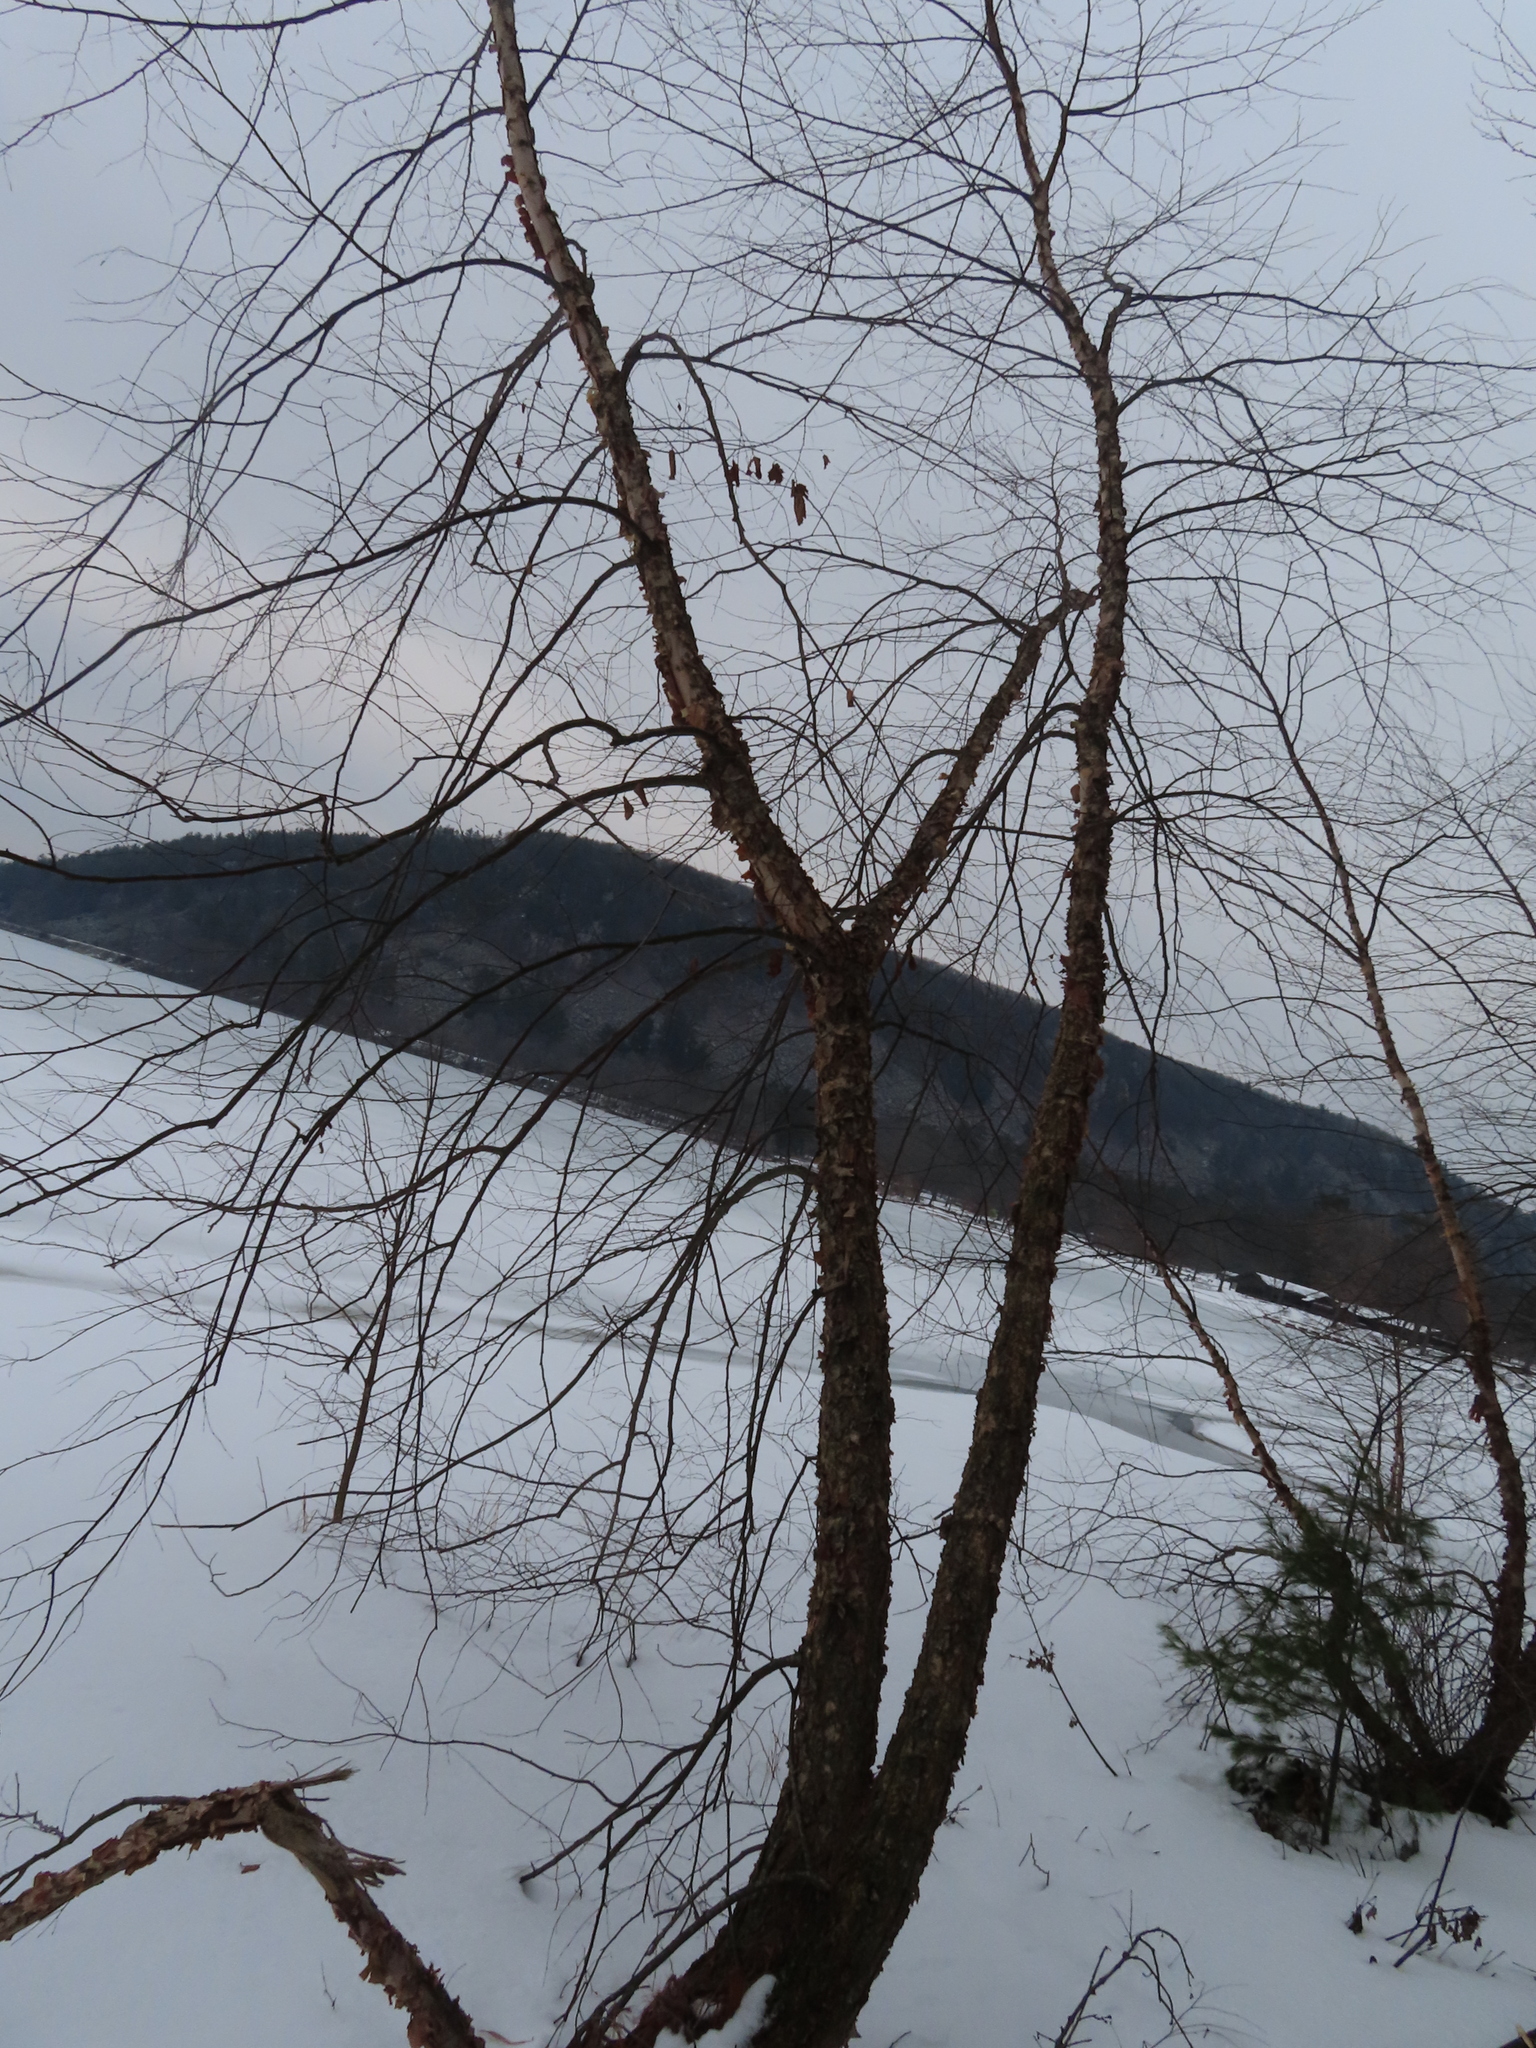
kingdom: Plantae
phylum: Tracheophyta
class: Magnoliopsida
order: Fagales
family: Betulaceae
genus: Betula
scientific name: Betula nigra
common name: Black birch
